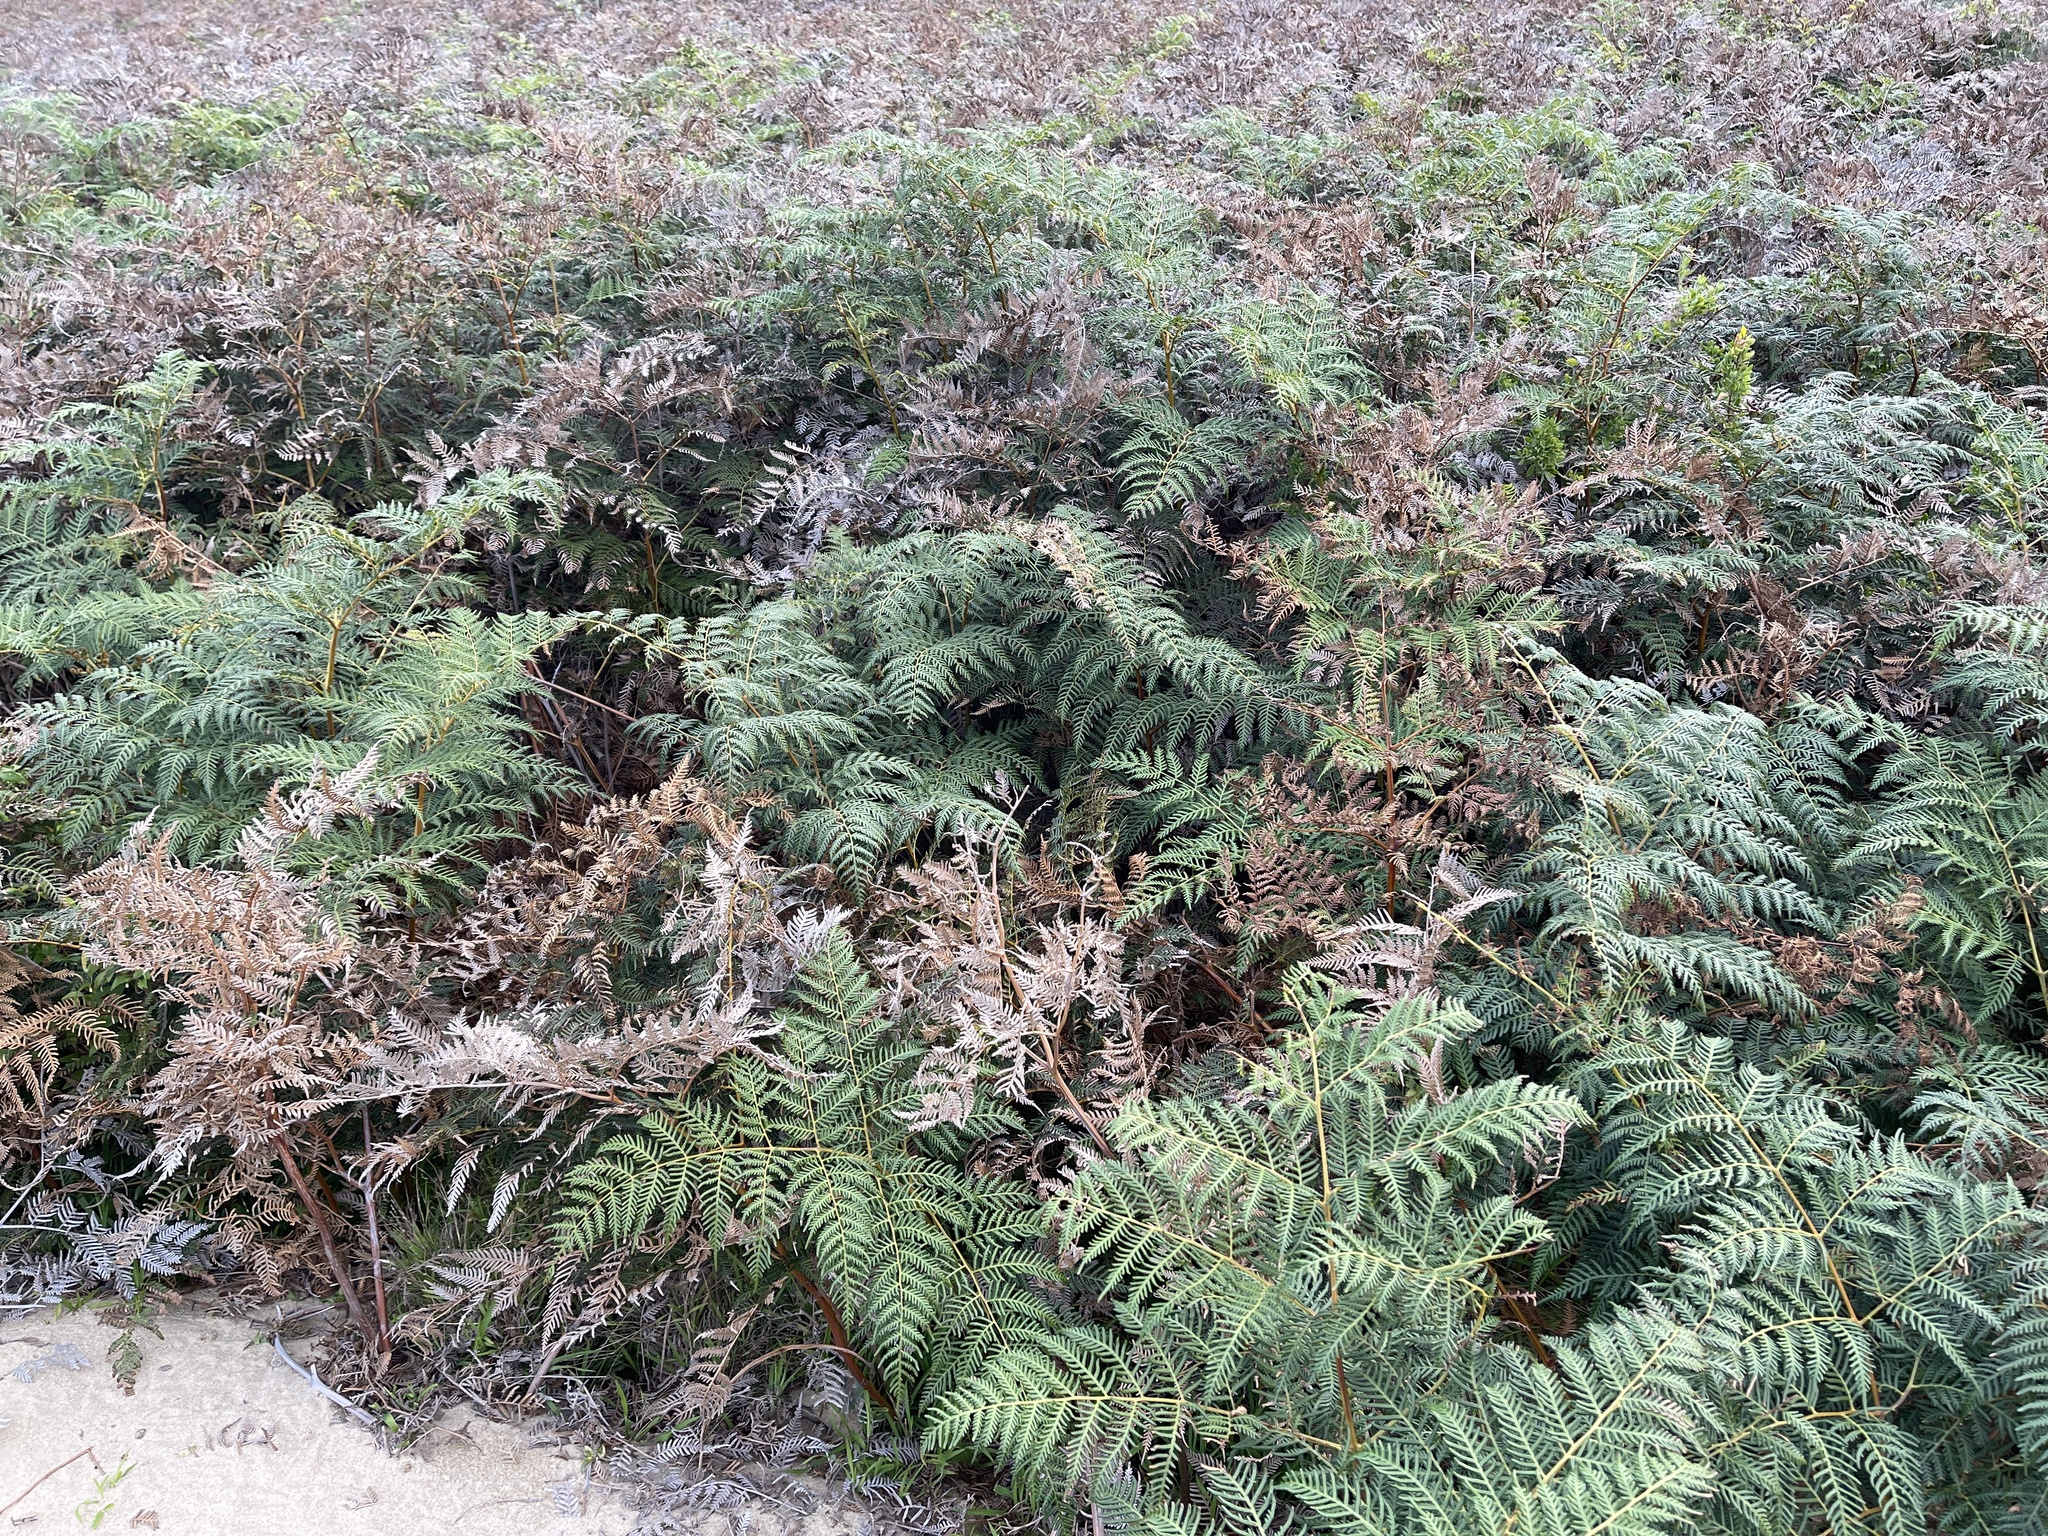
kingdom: Plantae
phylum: Tracheophyta
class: Polypodiopsida
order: Polypodiales
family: Dennstaedtiaceae
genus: Pteridium
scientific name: Pteridium esculentum
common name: Bracken fern
